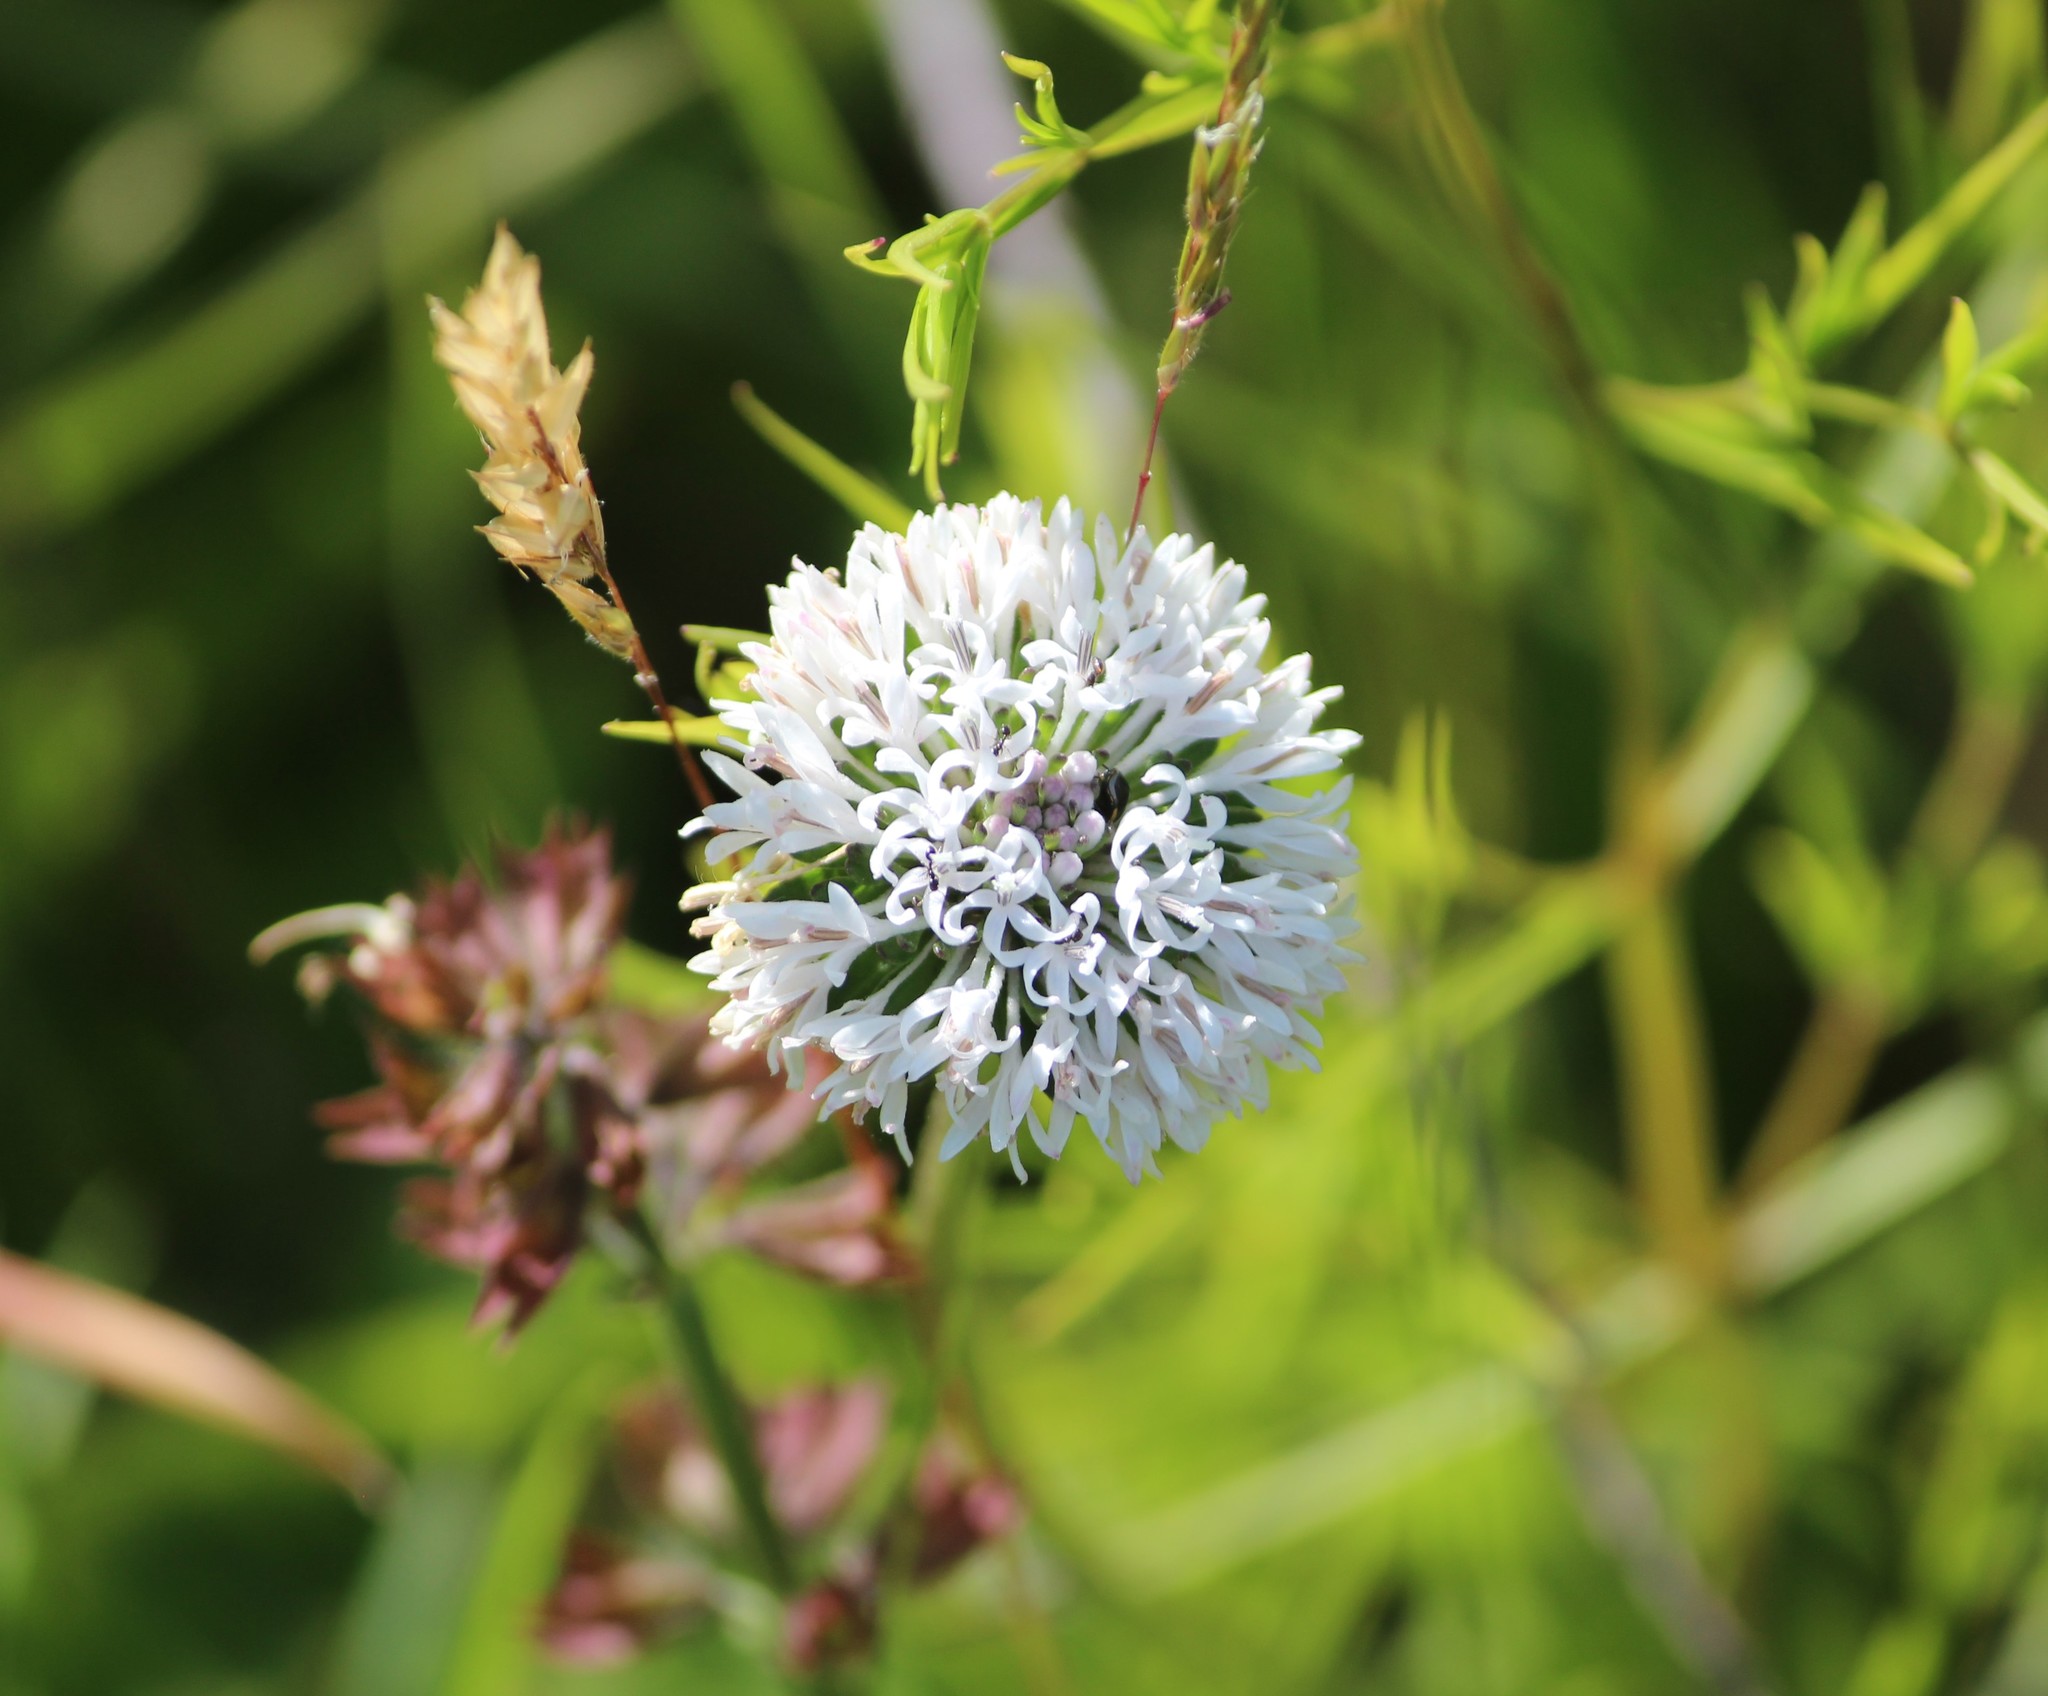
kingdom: Plantae
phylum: Tracheophyta
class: Magnoliopsida
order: Asterales
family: Asteraceae
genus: Marshallia
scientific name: Marshallia obovata
